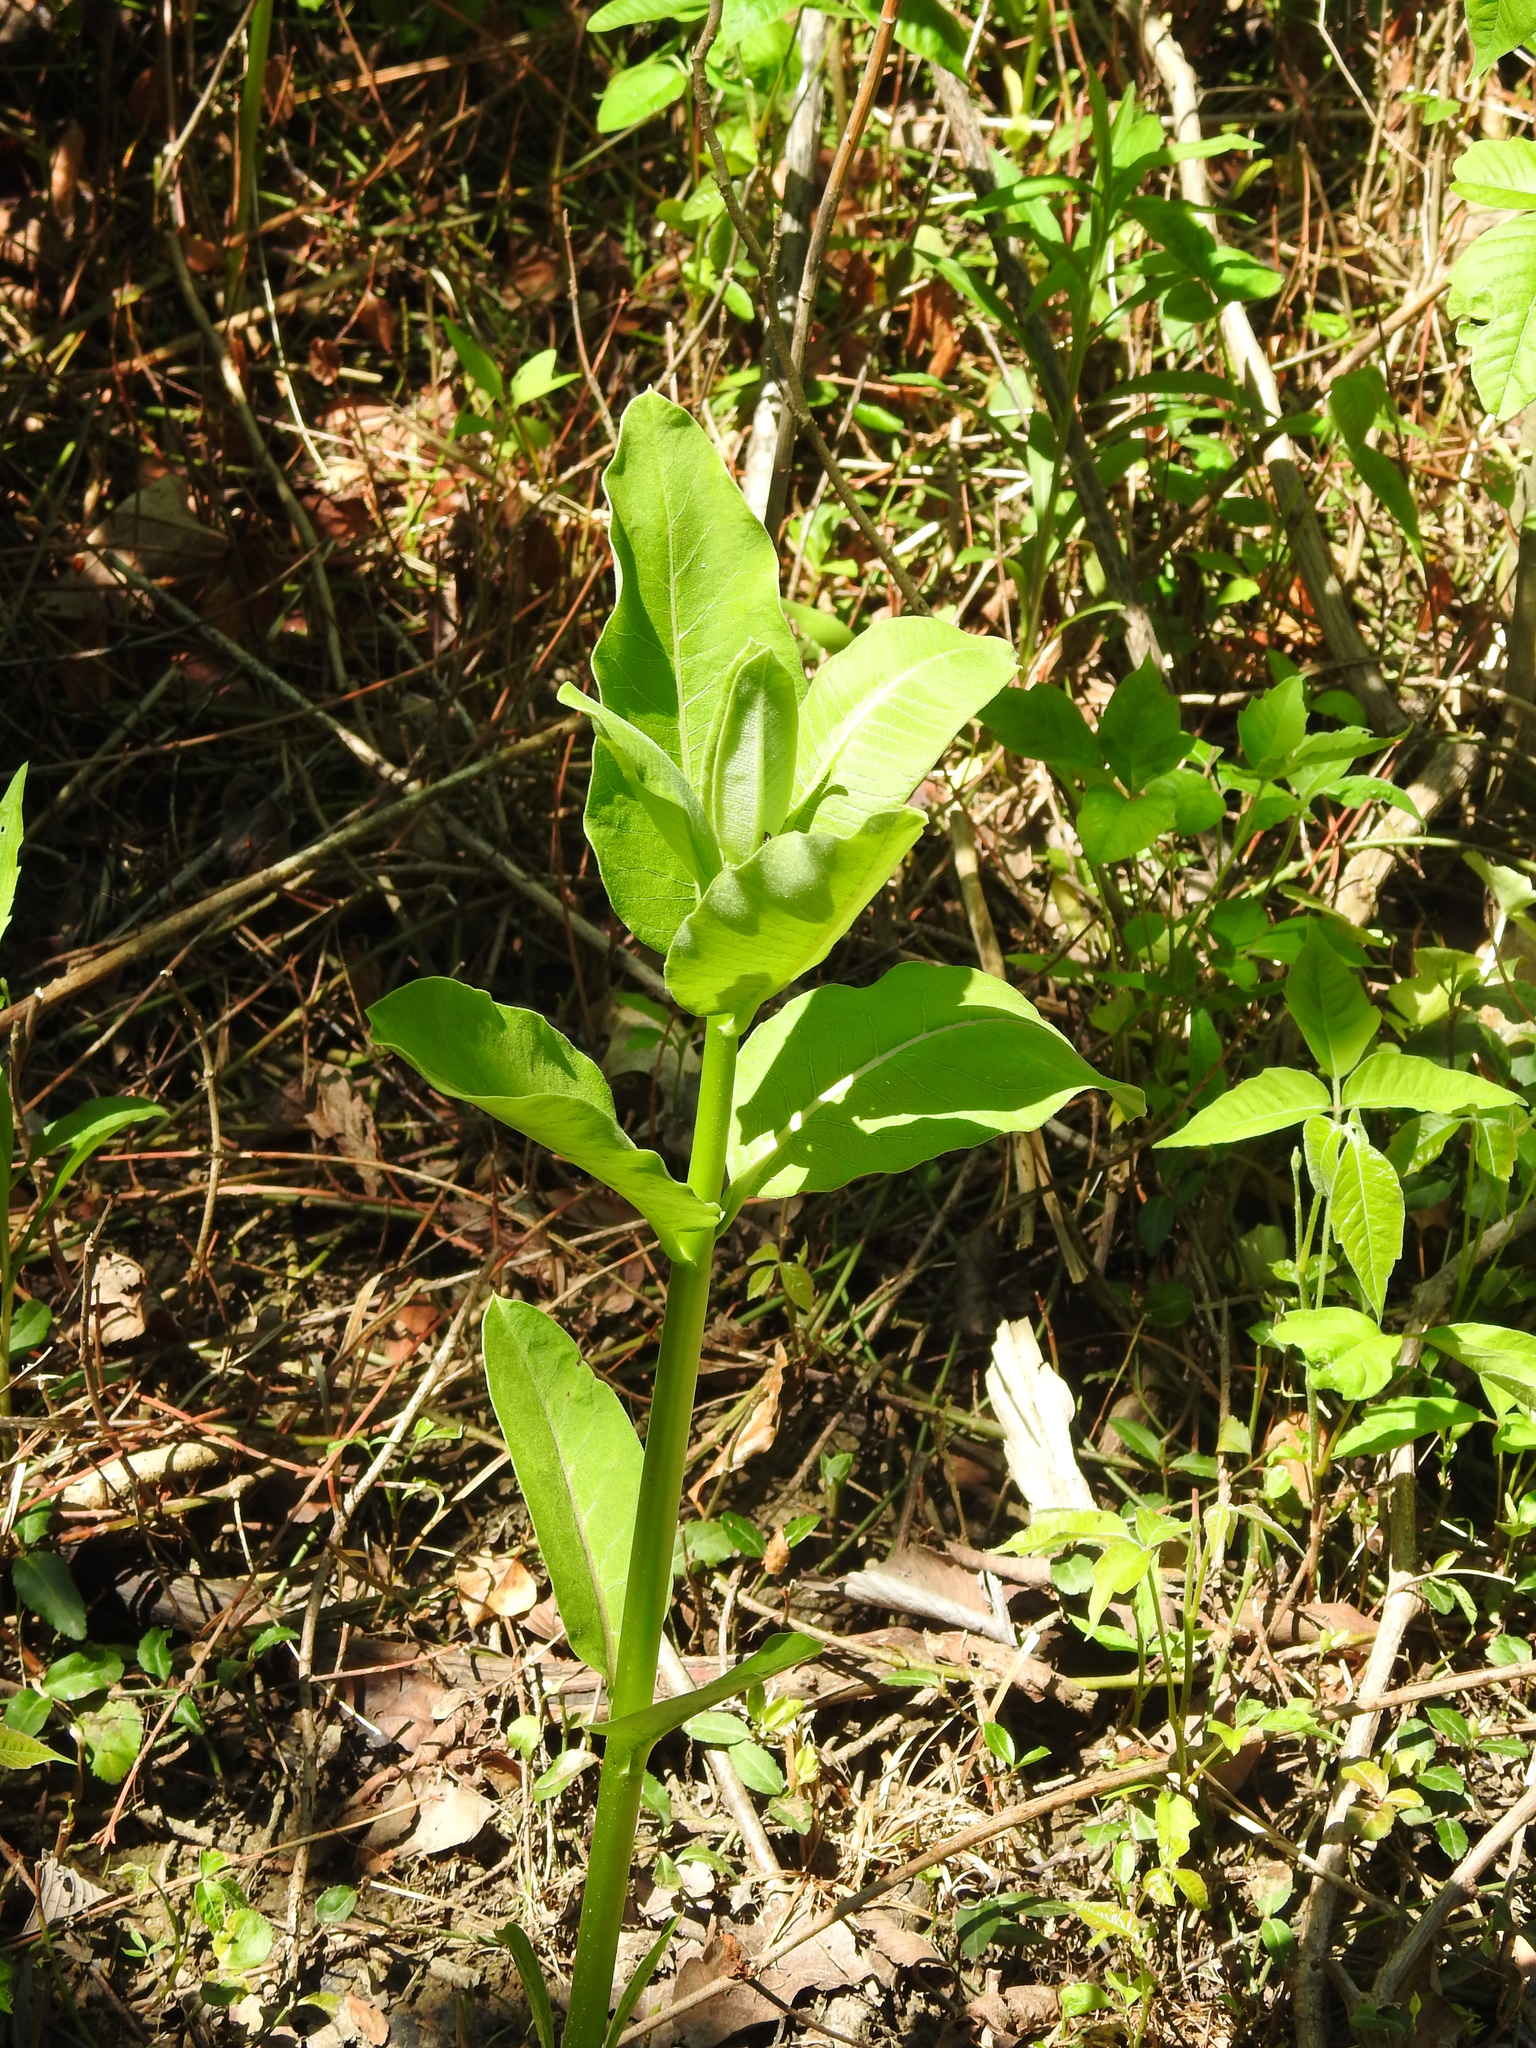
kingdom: Plantae
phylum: Tracheophyta
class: Magnoliopsida
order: Gentianales
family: Apocynaceae
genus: Asclepias
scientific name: Asclepias syriaca
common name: Common milkweed
